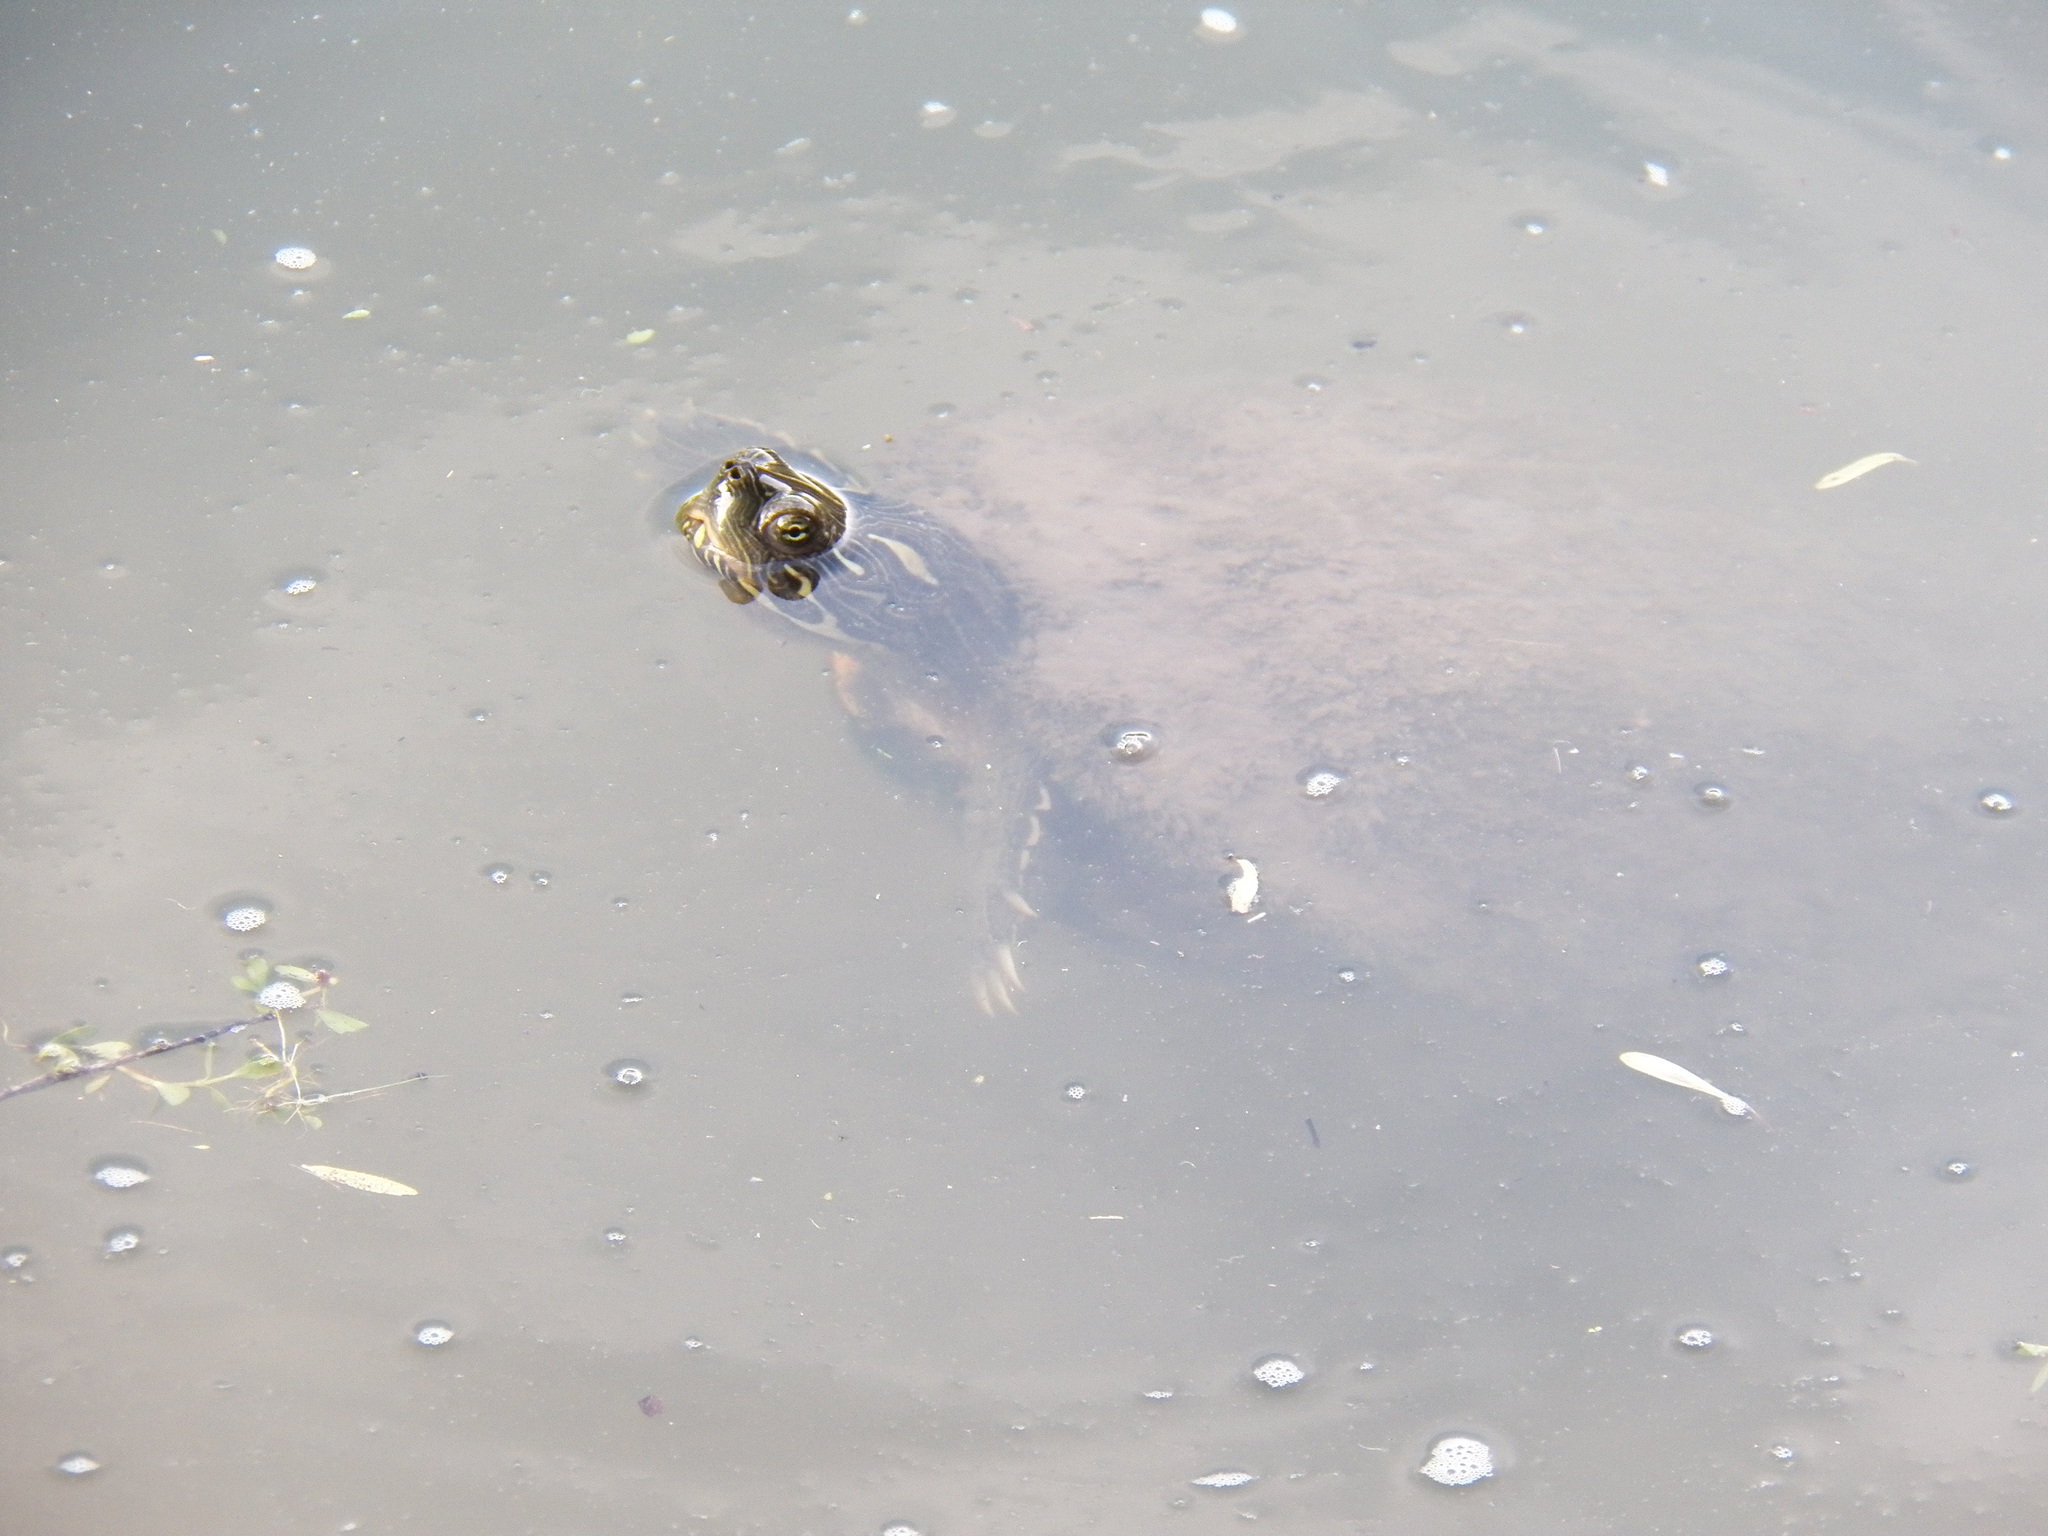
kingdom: Animalia
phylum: Chordata
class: Testudines
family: Emydidae
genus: Trachemys
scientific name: Trachemys scripta
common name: Slider
